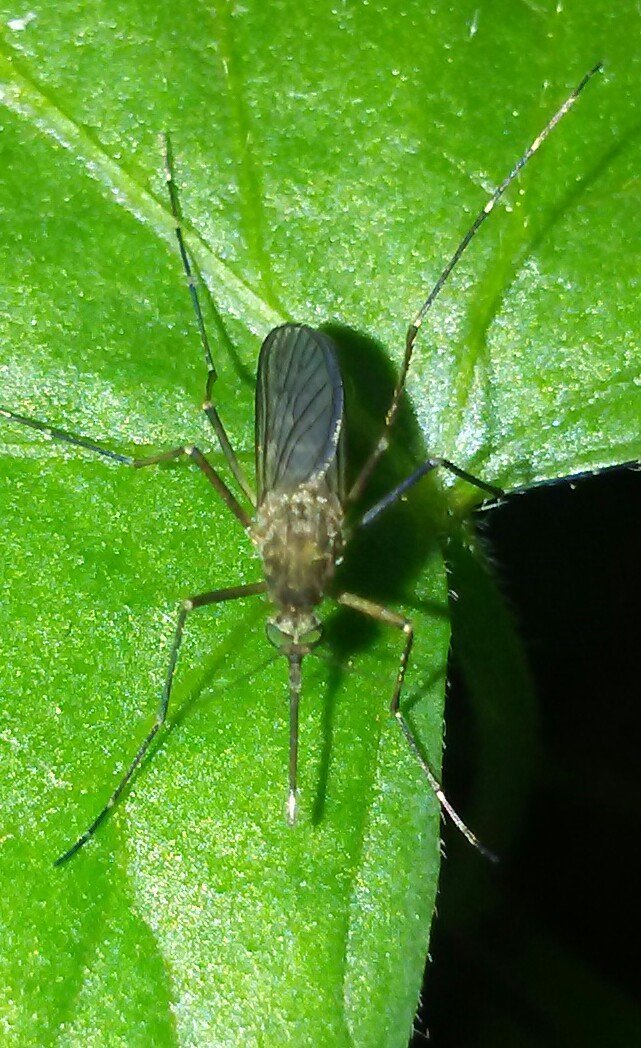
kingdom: Animalia
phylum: Arthropoda
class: Insecta
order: Diptera
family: Culicidae
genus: Aedes
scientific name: Aedes vexans
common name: Inland floodwater mosquito
